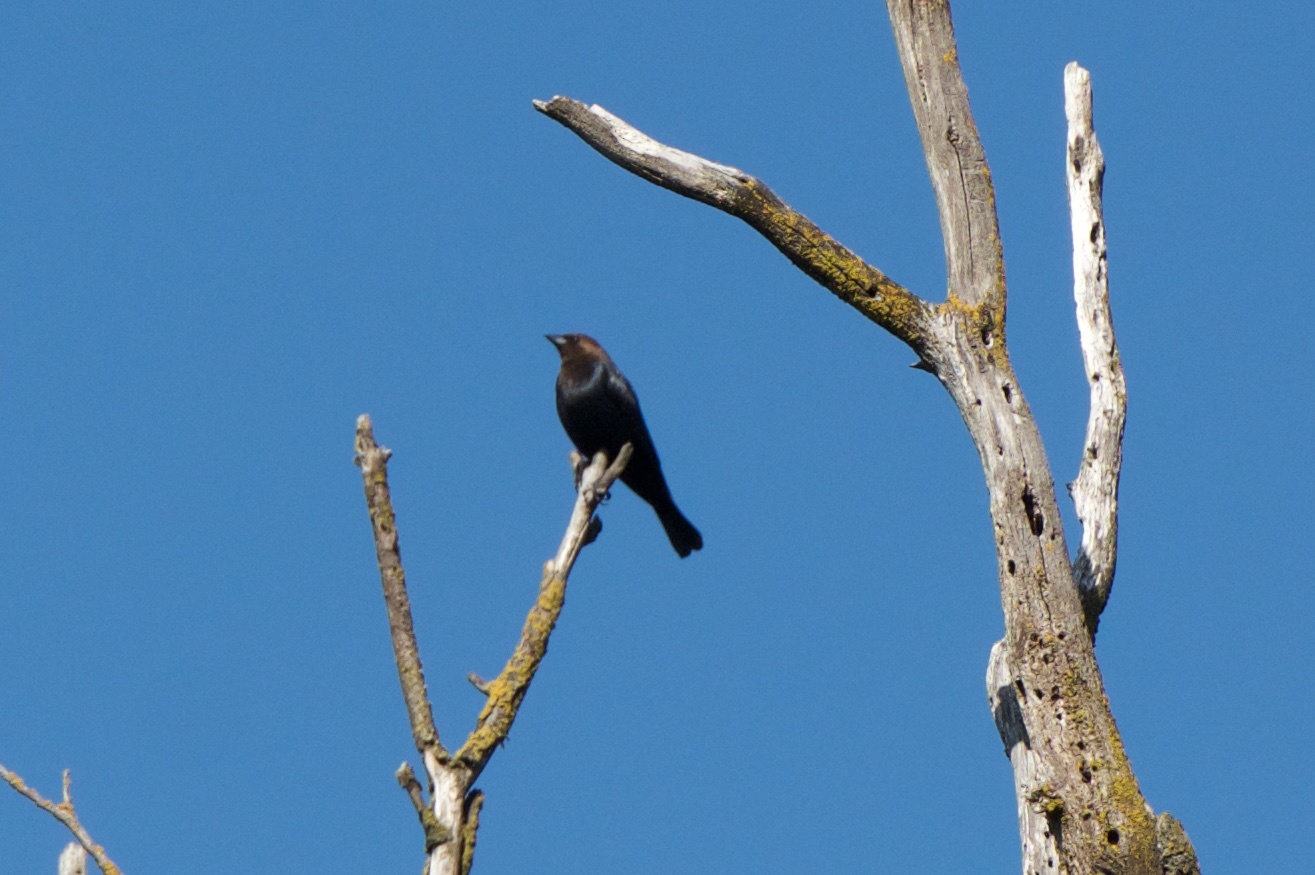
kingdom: Animalia
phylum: Chordata
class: Aves
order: Passeriformes
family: Icteridae
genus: Molothrus
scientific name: Molothrus ater
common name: Brown-headed cowbird
